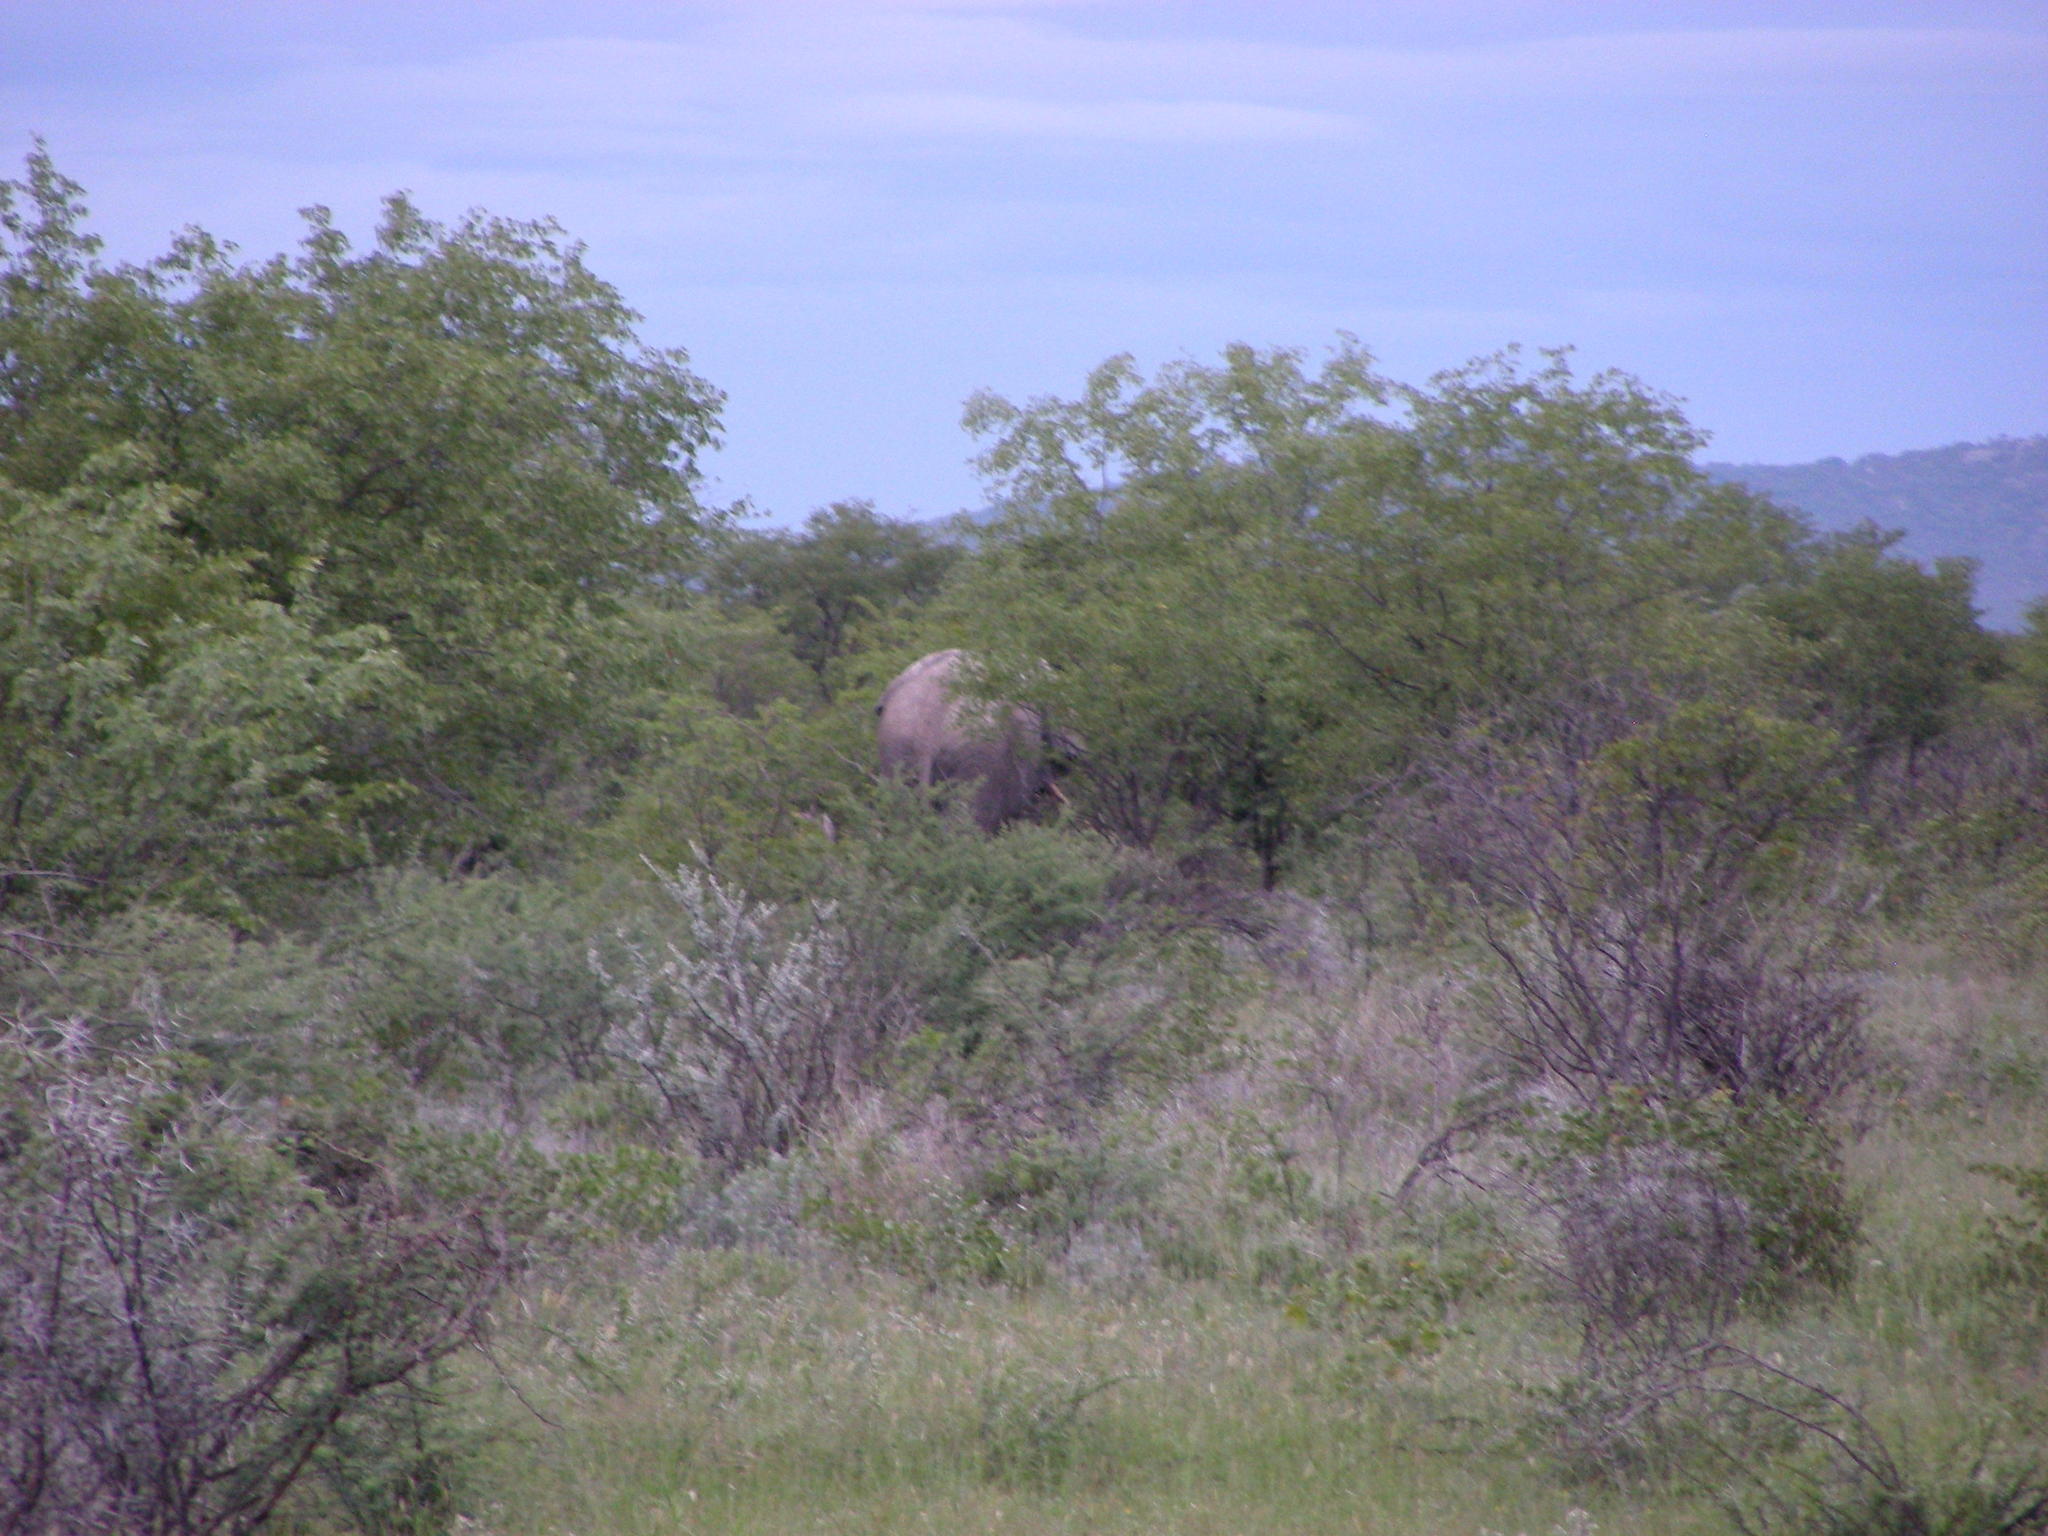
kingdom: Animalia
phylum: Chordata
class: Mammalia
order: Proboscidea
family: Elephantidae
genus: Loxodonta
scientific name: Loxodonta africana
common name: African elephant
